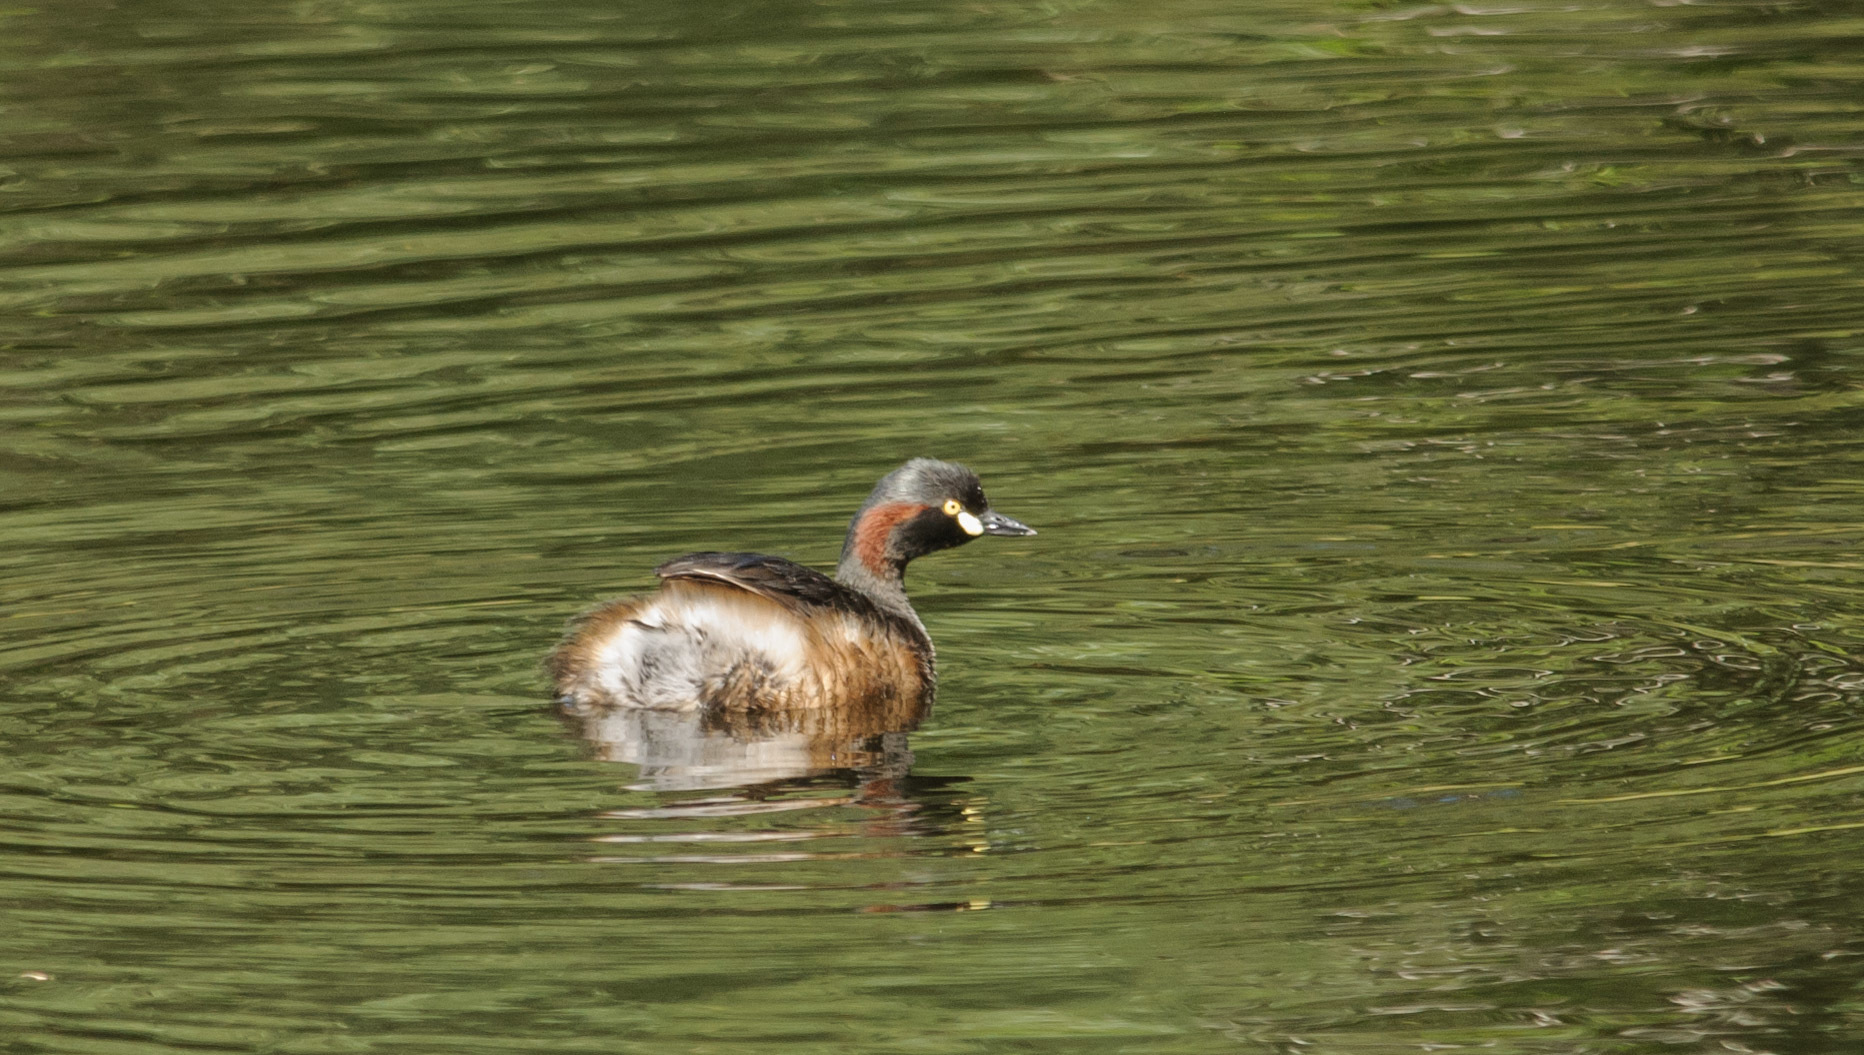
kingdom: Animalia
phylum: Chordata
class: Aves
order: Podicipediformes
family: Podicipedidae
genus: Tachybaptus
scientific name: Tachybaptus novaehollandiae
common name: Australasian grebe
